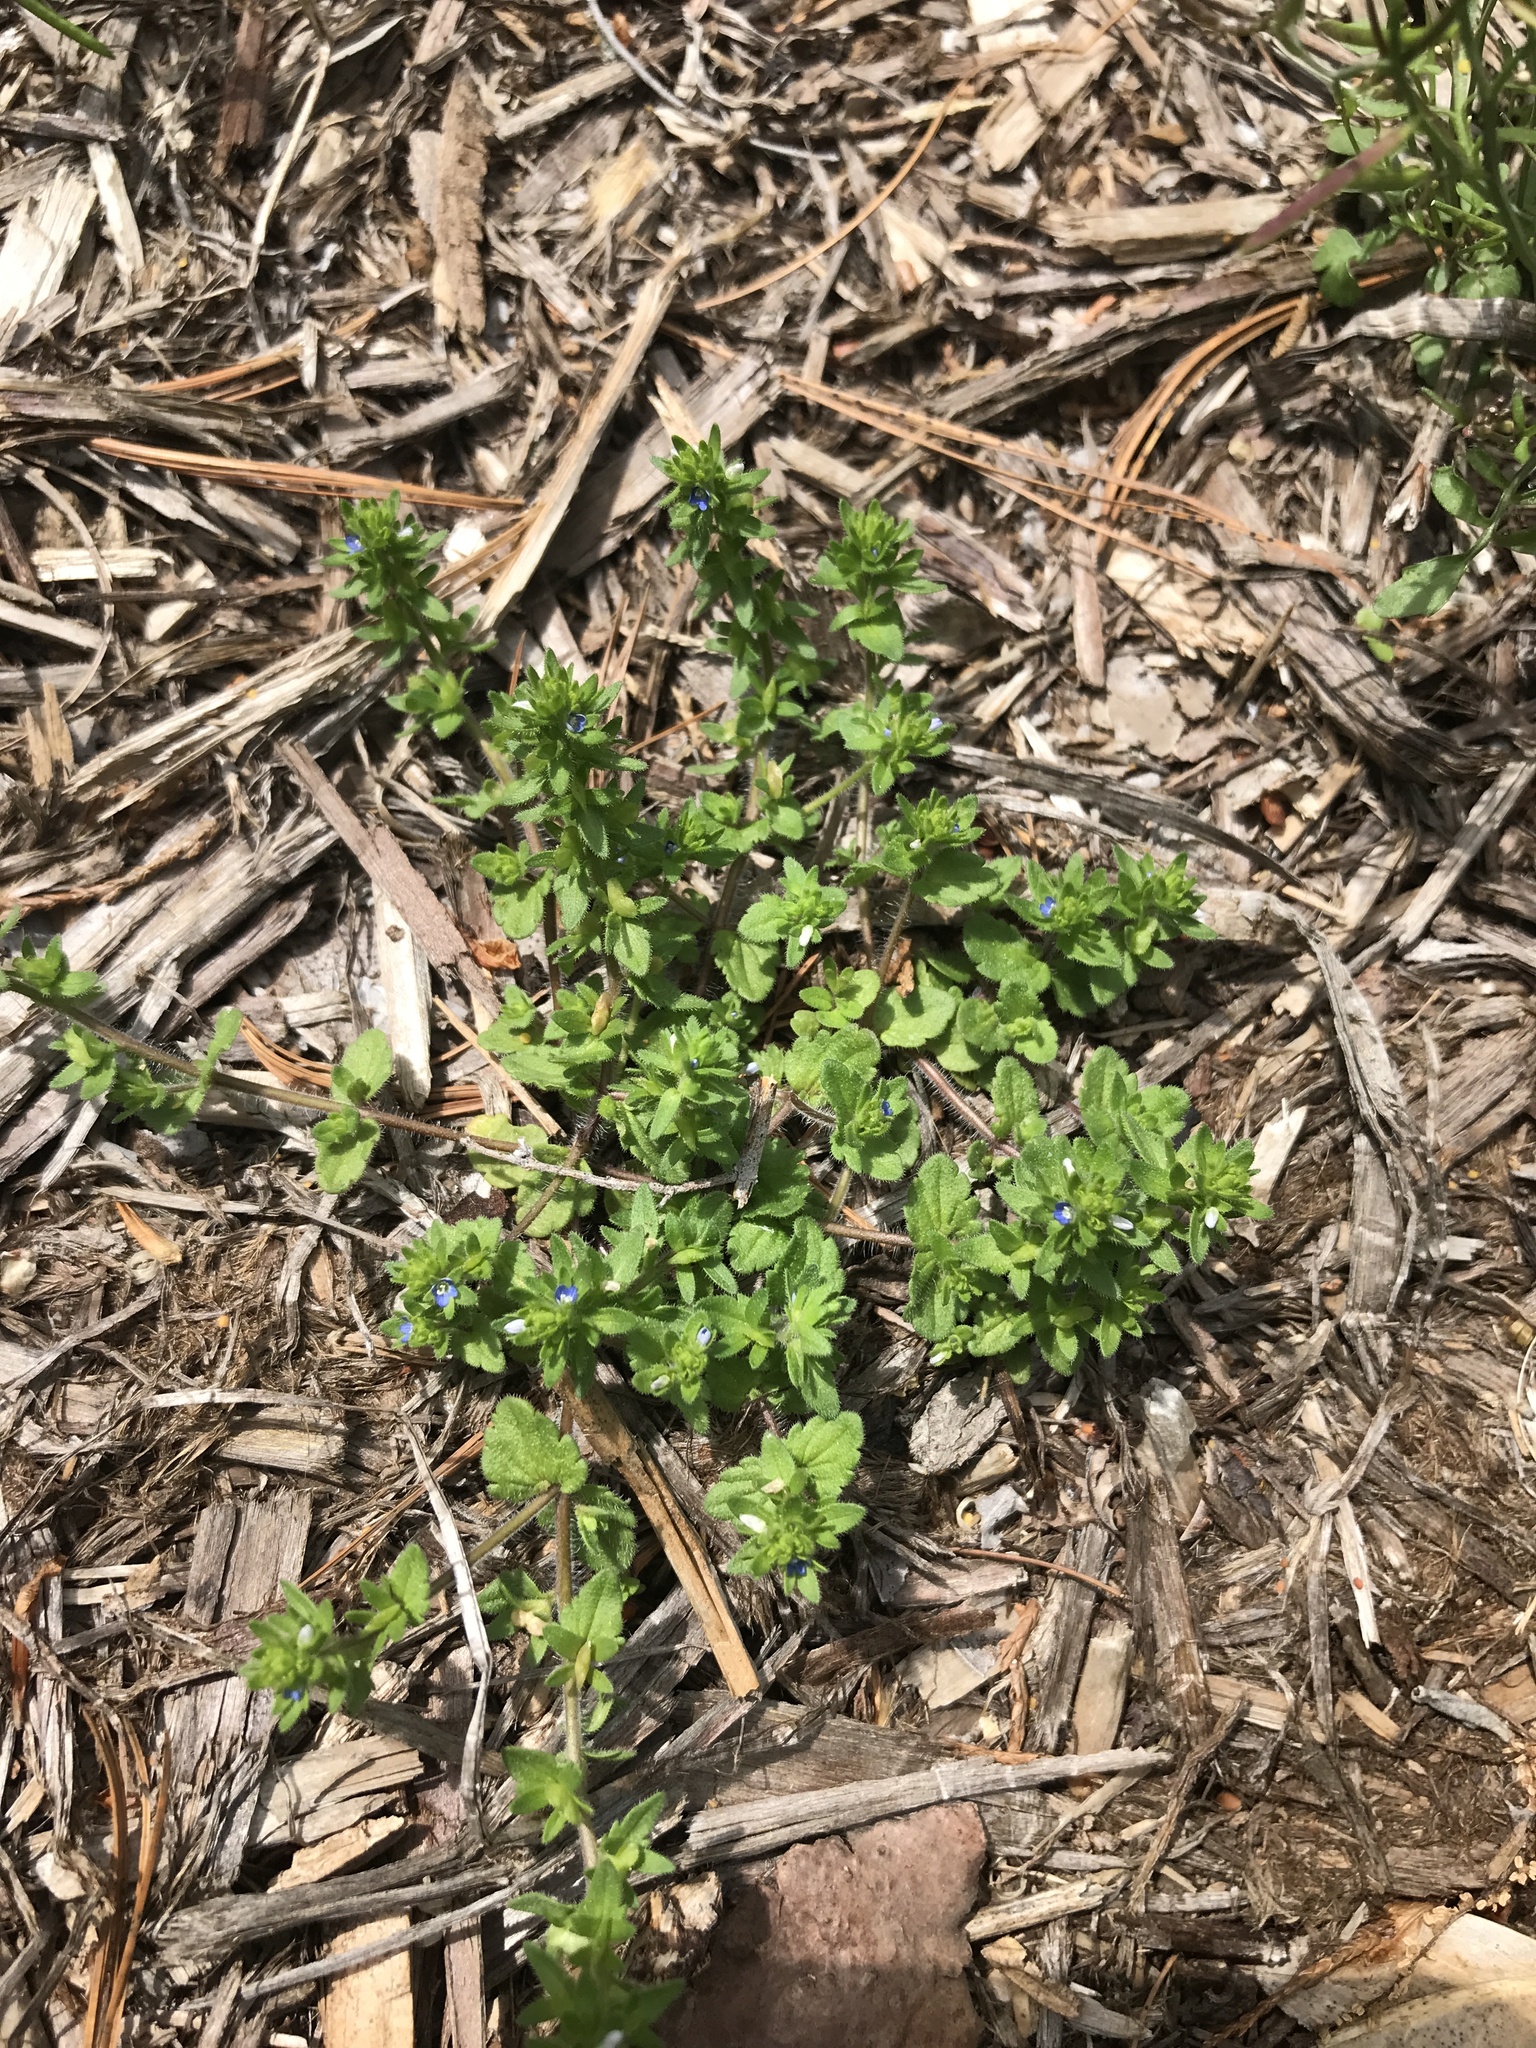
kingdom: Plantae
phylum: Tracheophyta
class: Magnoliopsida
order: Lamiales
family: Plantaginaceae
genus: Veronica
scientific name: Veronica arvensis
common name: Corn speedwell
